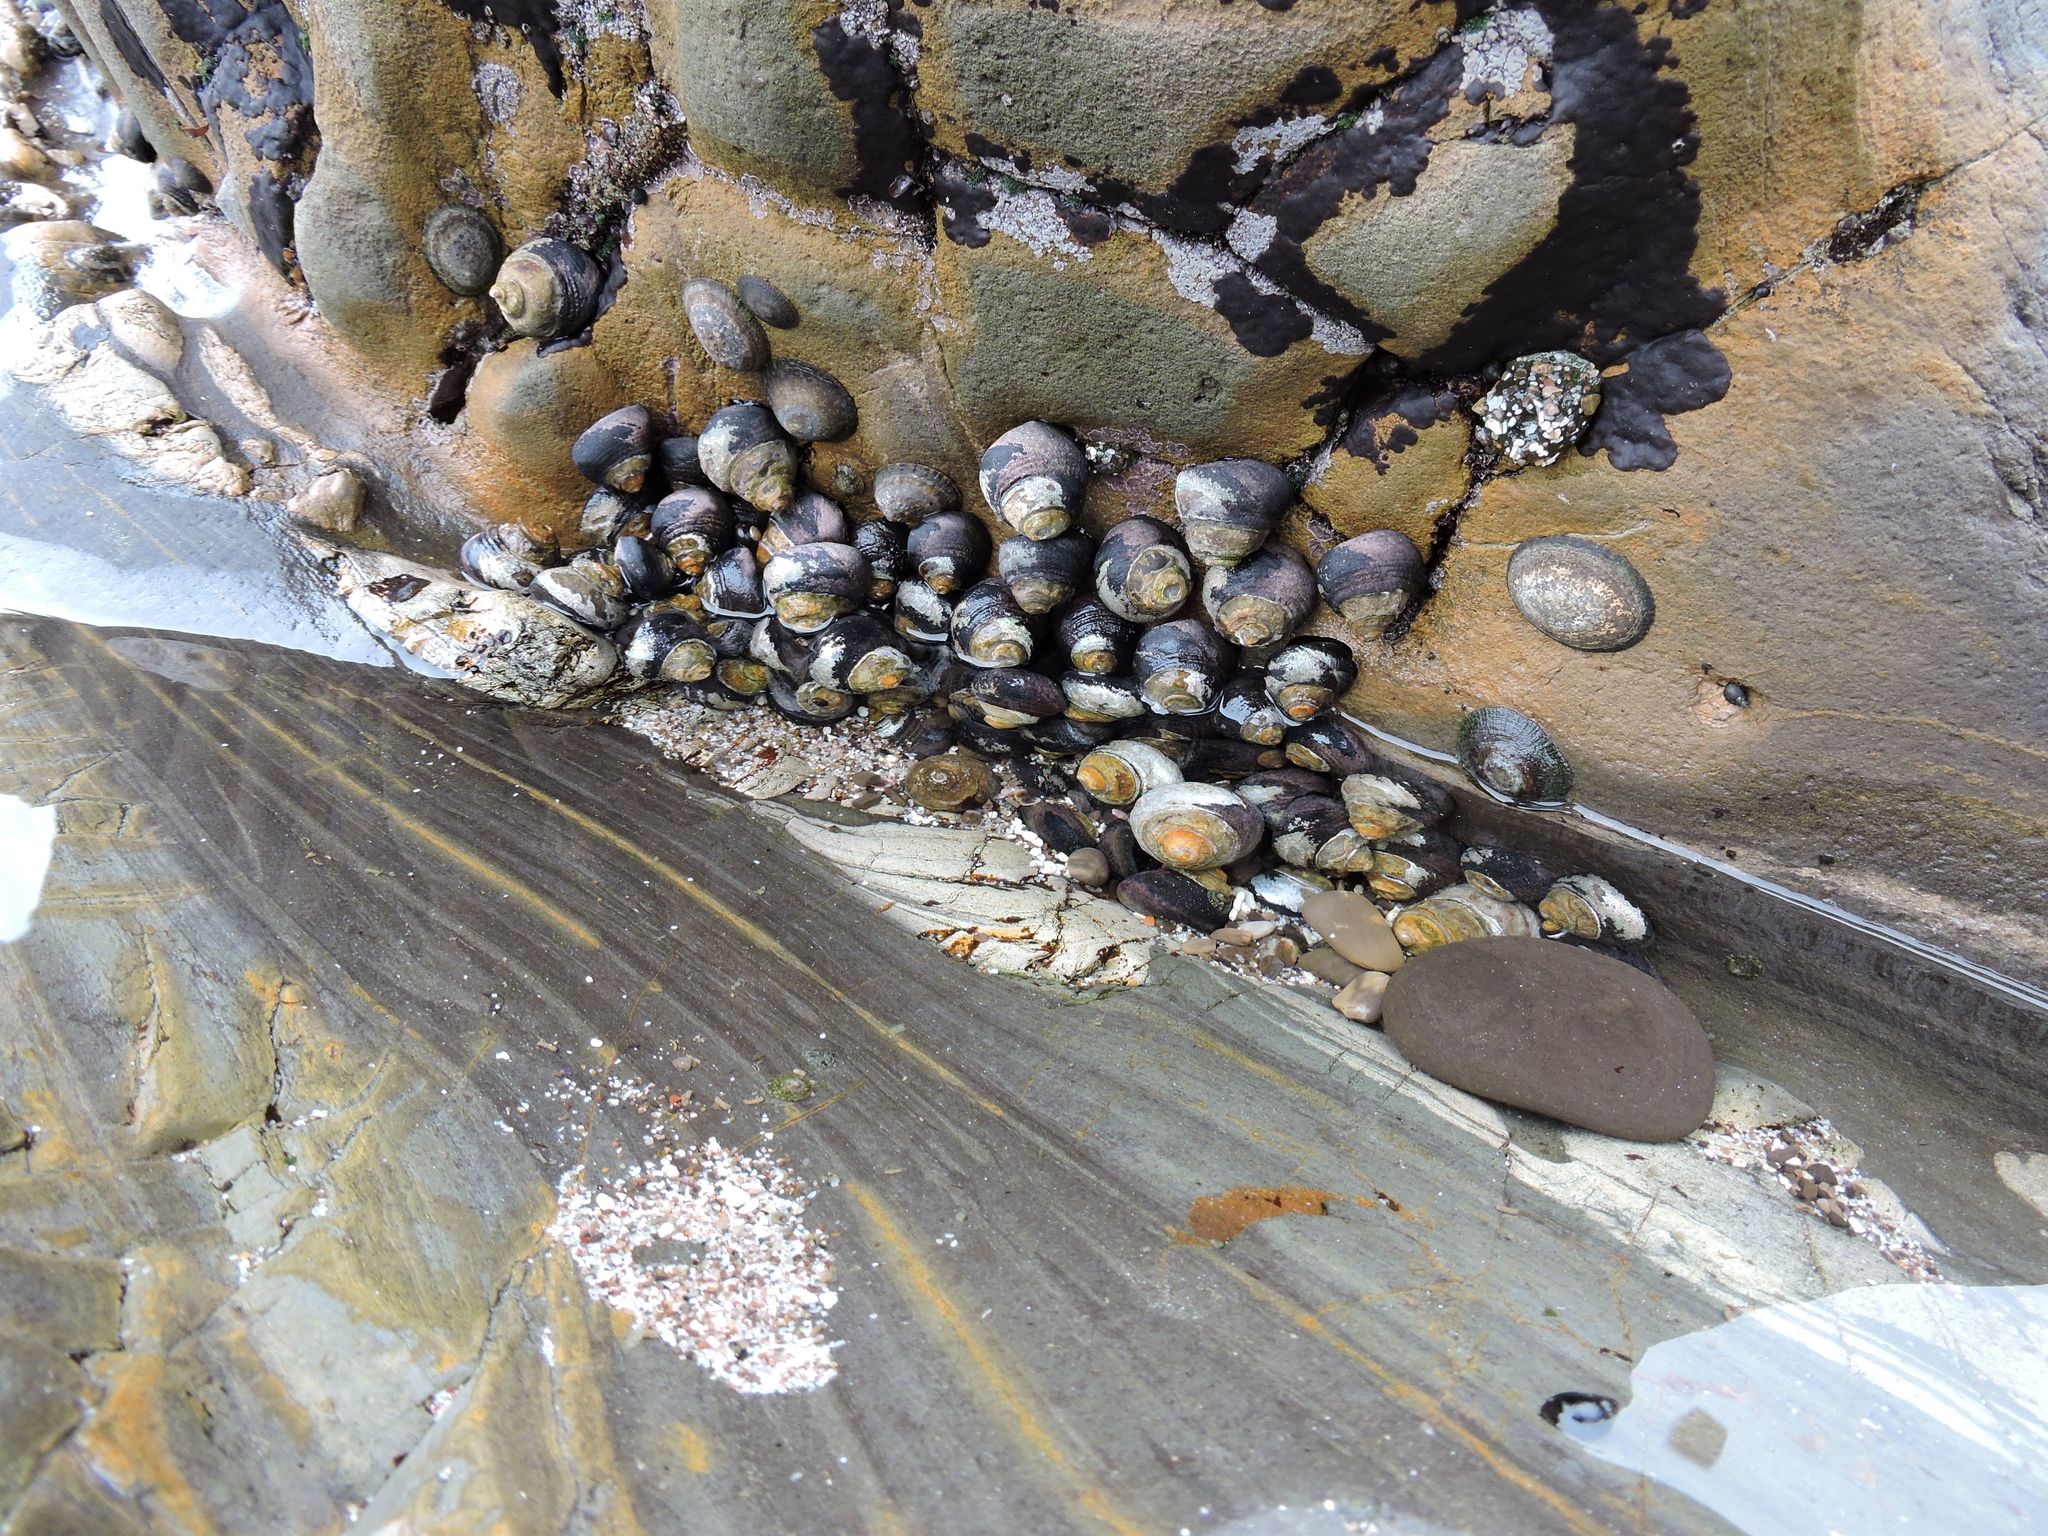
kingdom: Animalia
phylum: Mollusca
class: Gastropoda
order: Trochida
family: Tegulidae
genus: Tegula
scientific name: Tegula funebralis
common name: Black tegula
